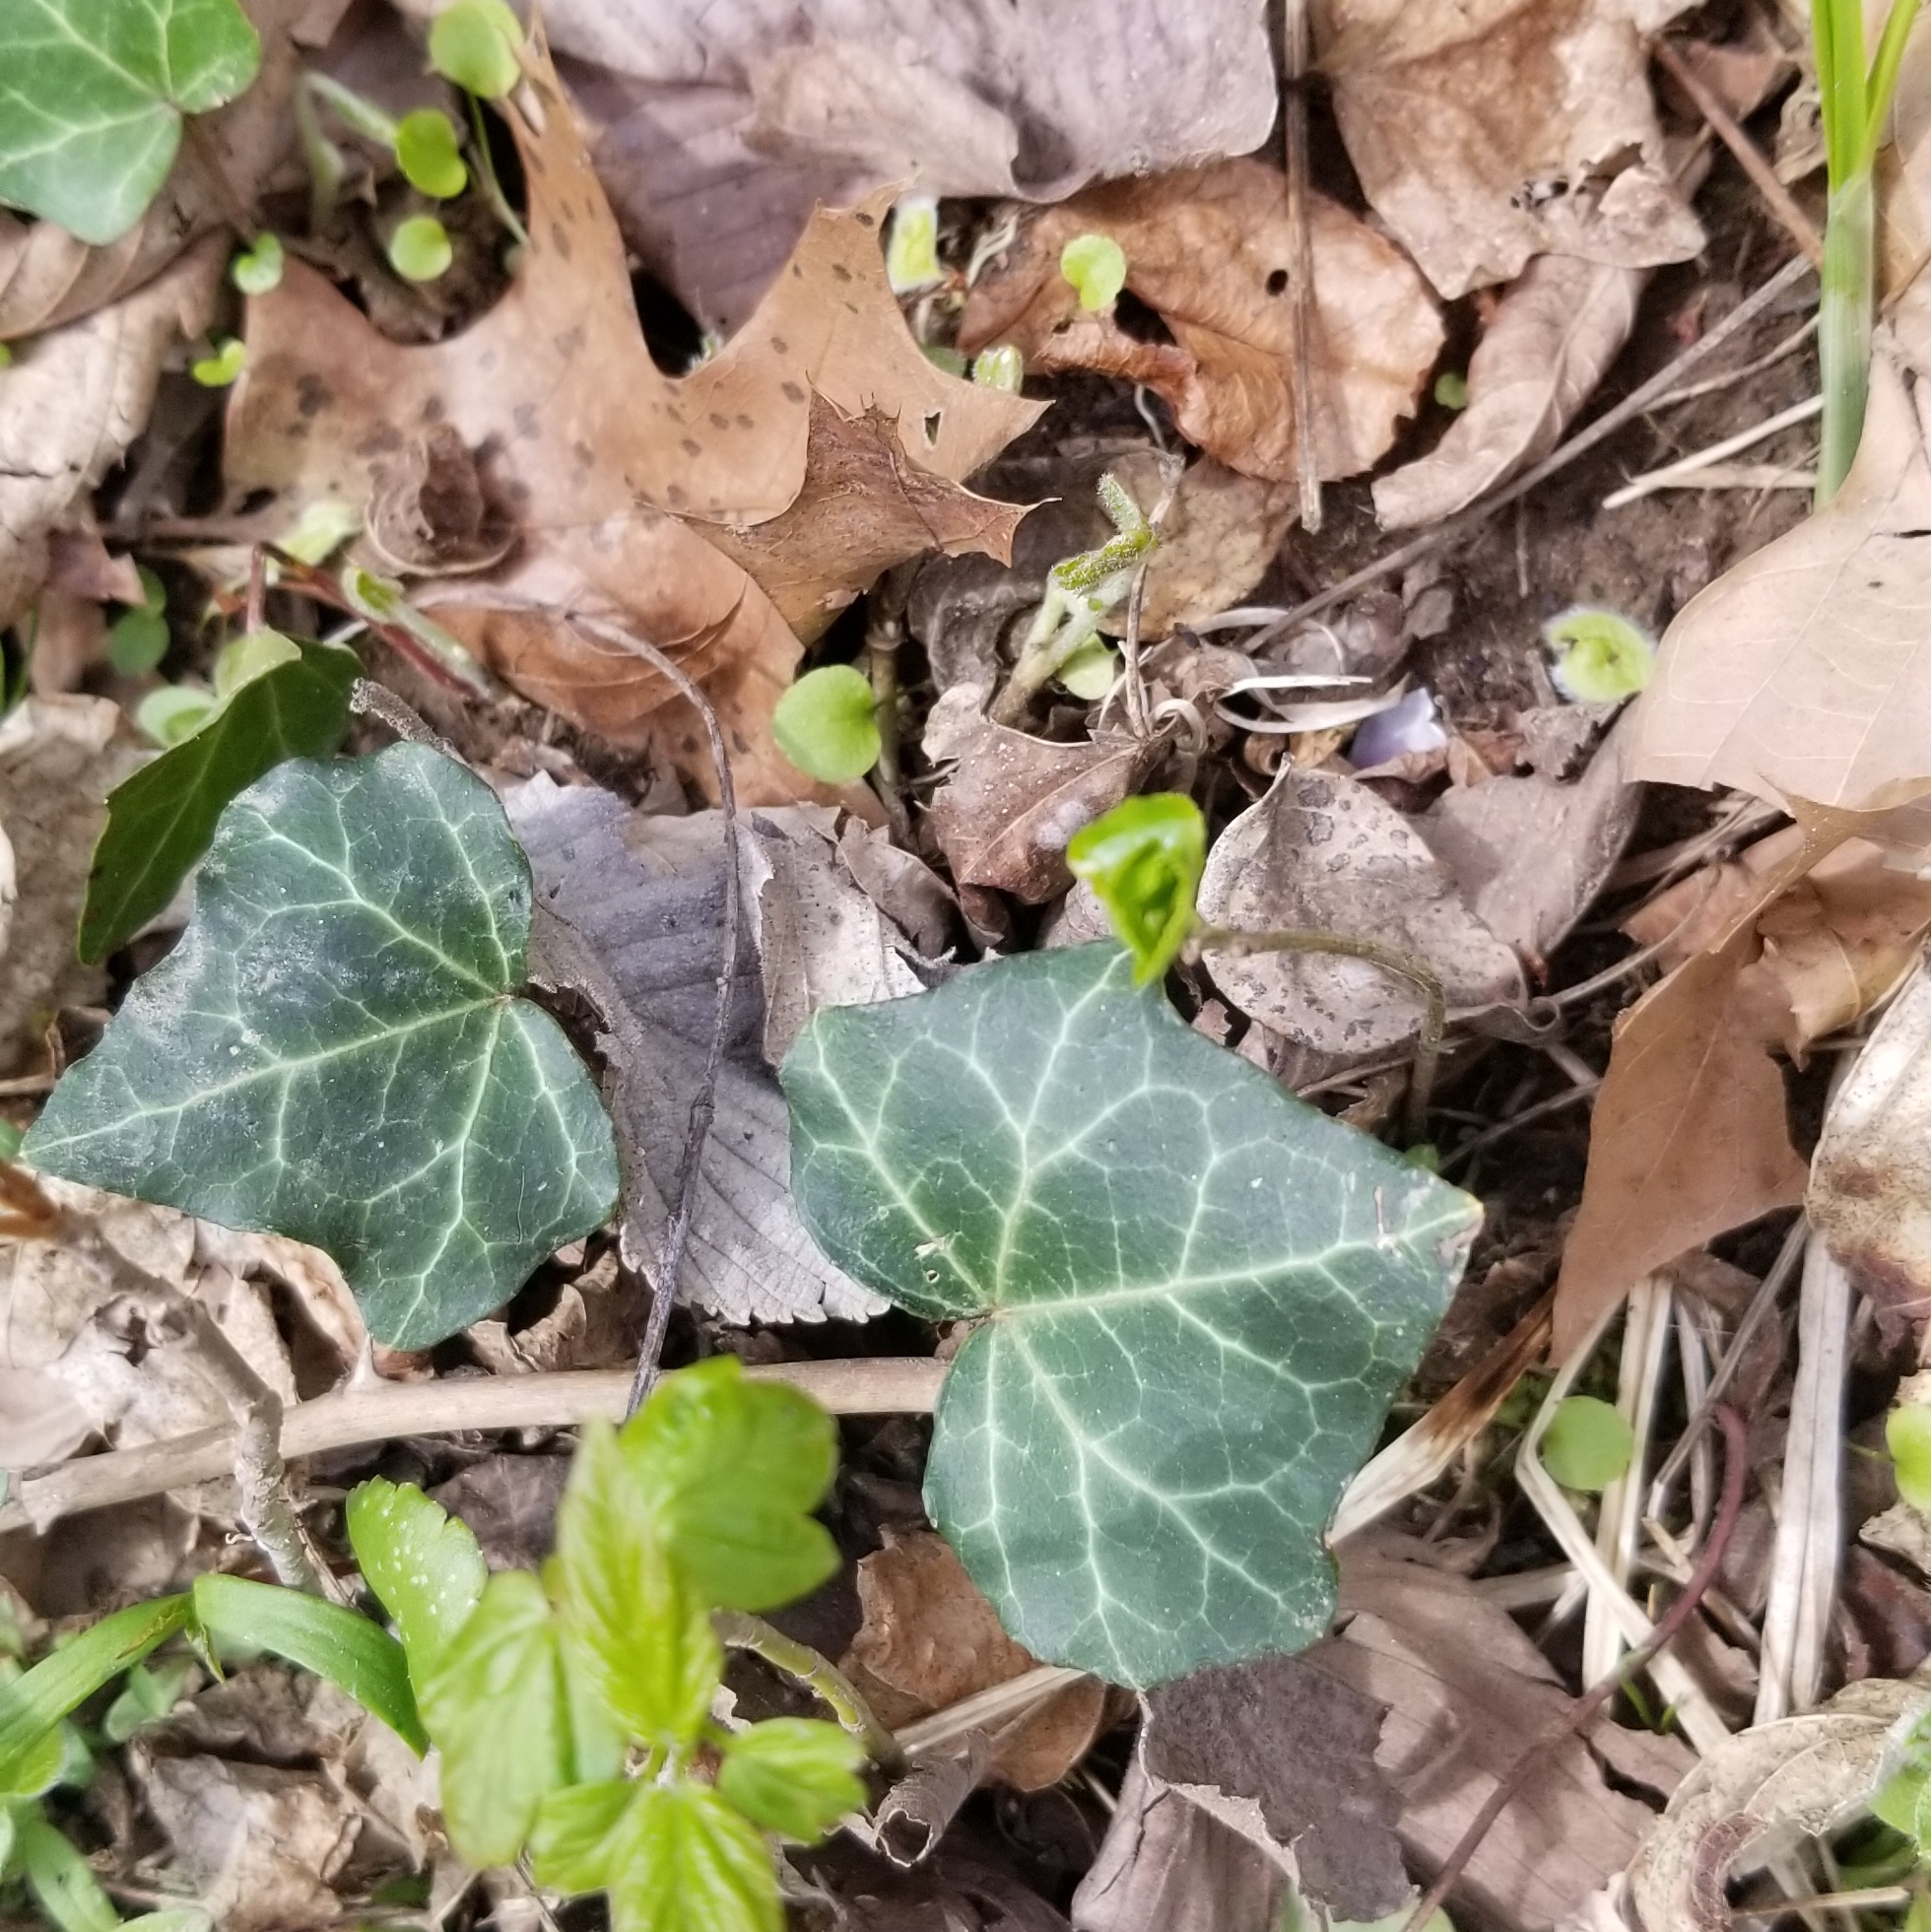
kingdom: Plantae
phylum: Tracheophyta
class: Magnoliopsida
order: Apiales
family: Araliaceae
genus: Hedera
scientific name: Hedera helix
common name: Ivy
